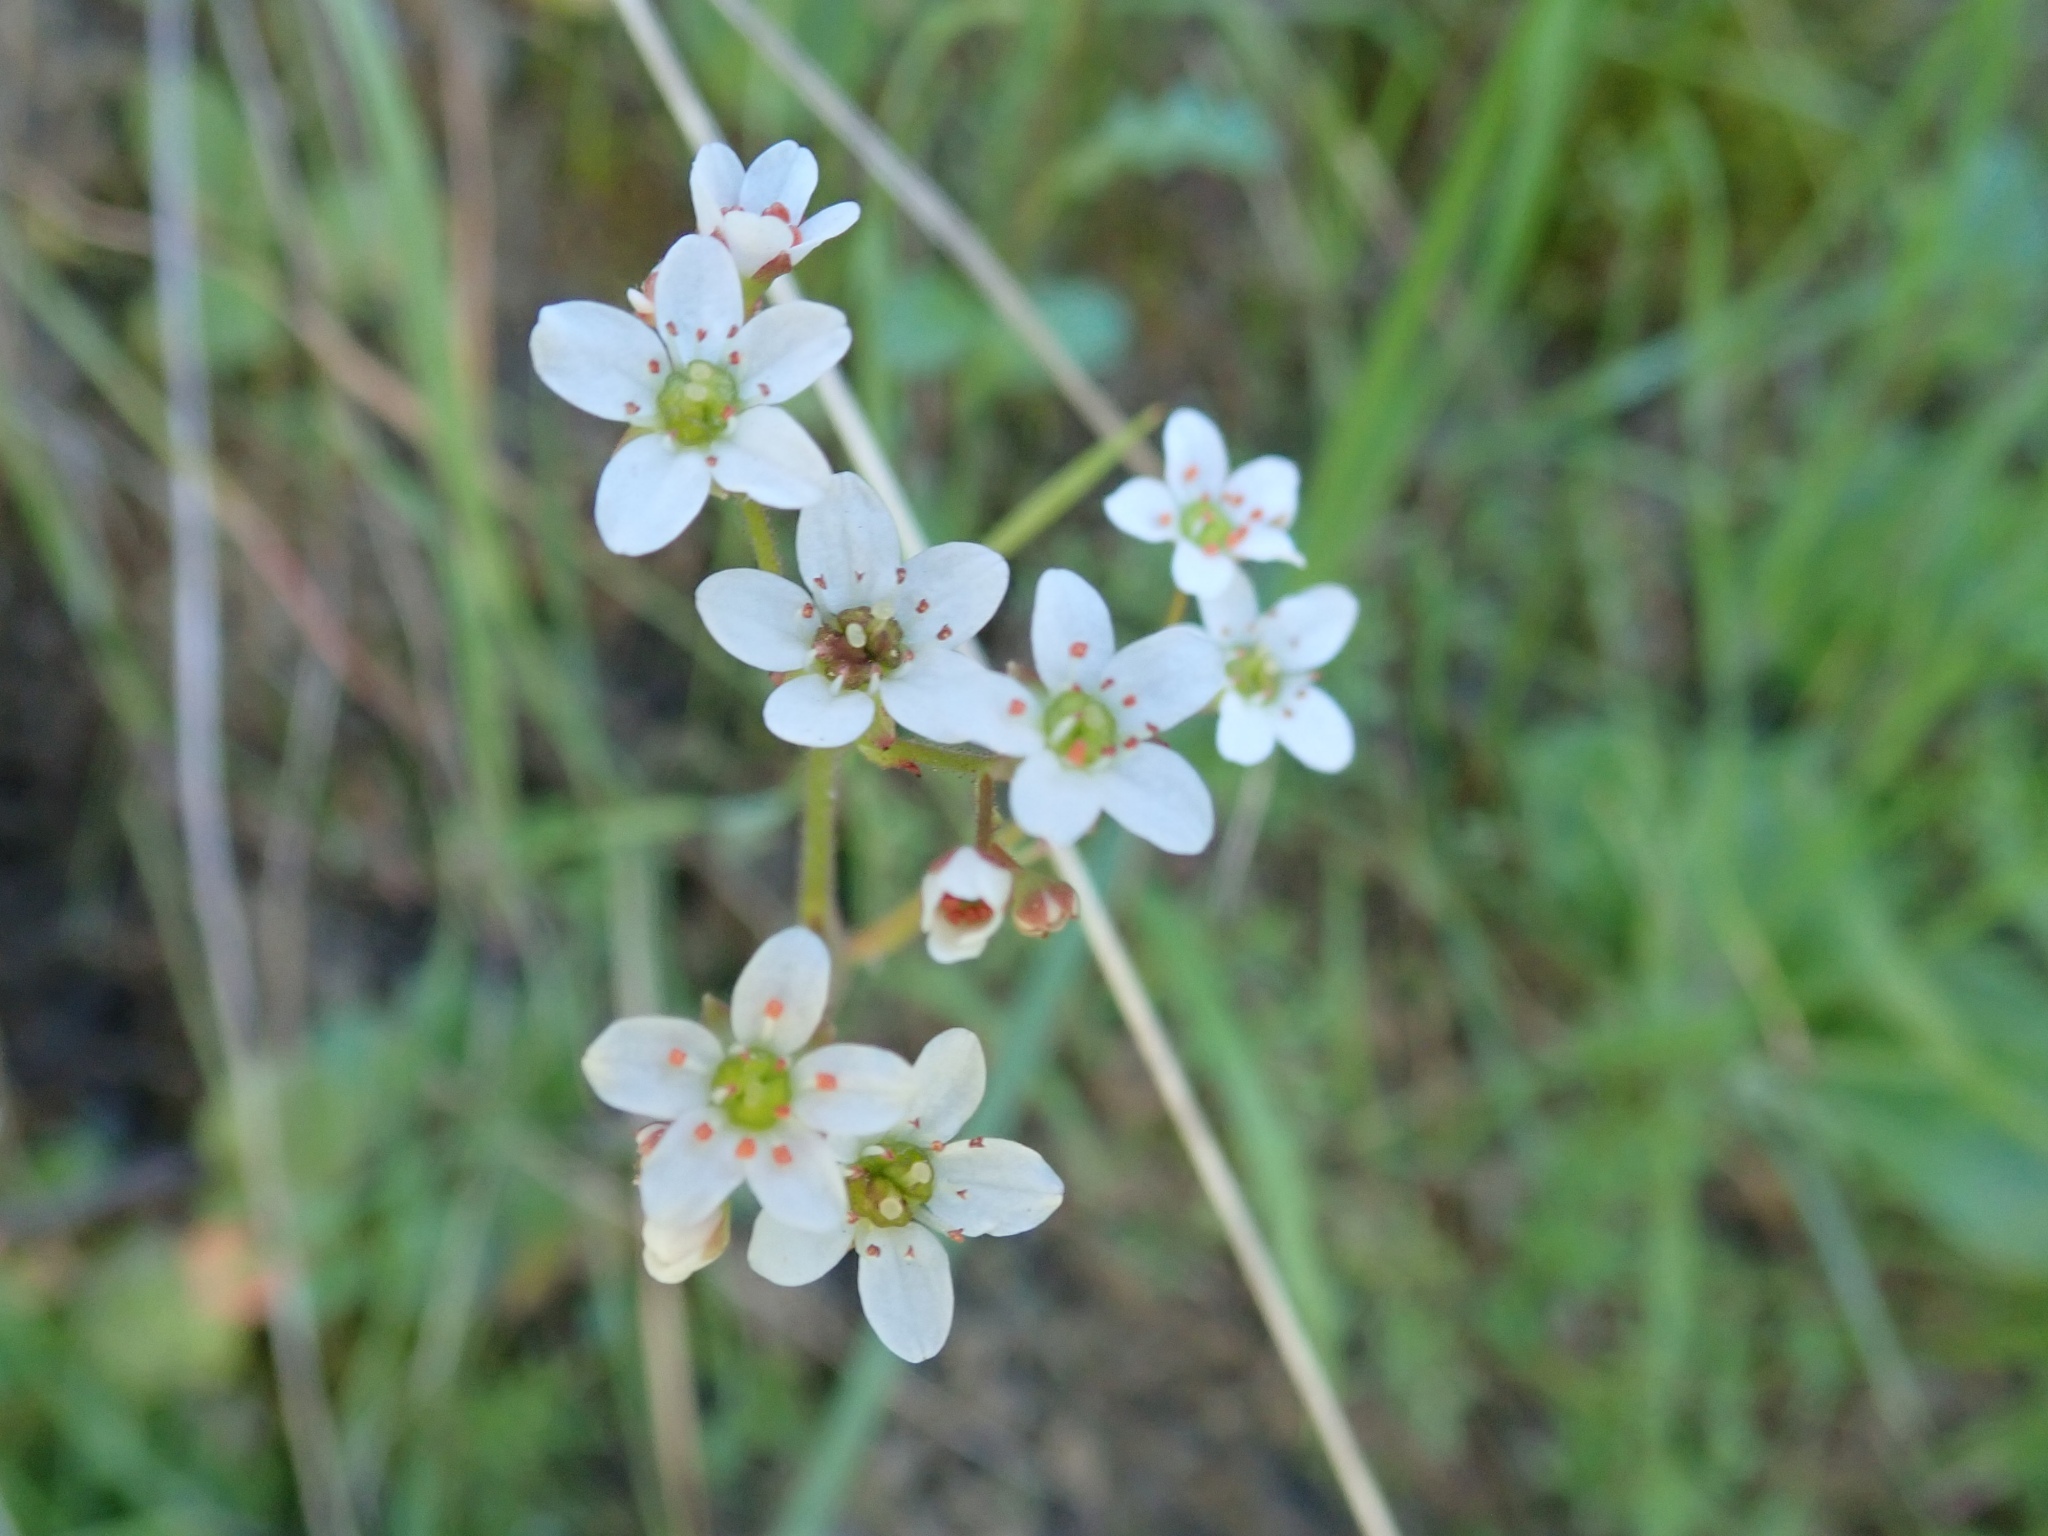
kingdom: Plantae
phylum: Tracheophyta
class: Magnoliopsida
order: Saxifragales
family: Saxifragaceae
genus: Micranthes
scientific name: Micranthes californica
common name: California saxifrage
